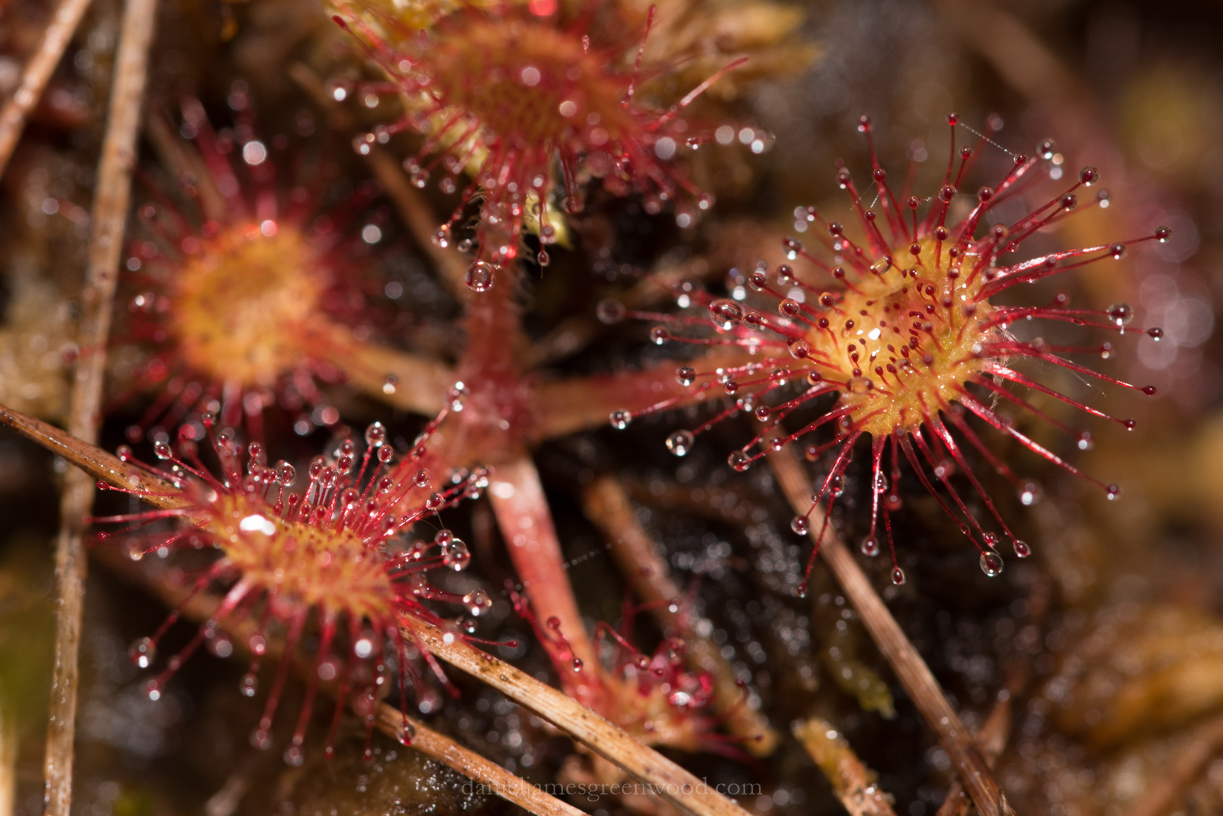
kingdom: Plantae
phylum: Tracheophyta
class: Magnoliopsida
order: Caryophyllales
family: Droseraceae
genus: Drosera
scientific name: Drosera rotundifolia
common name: Round-leaved sundew
